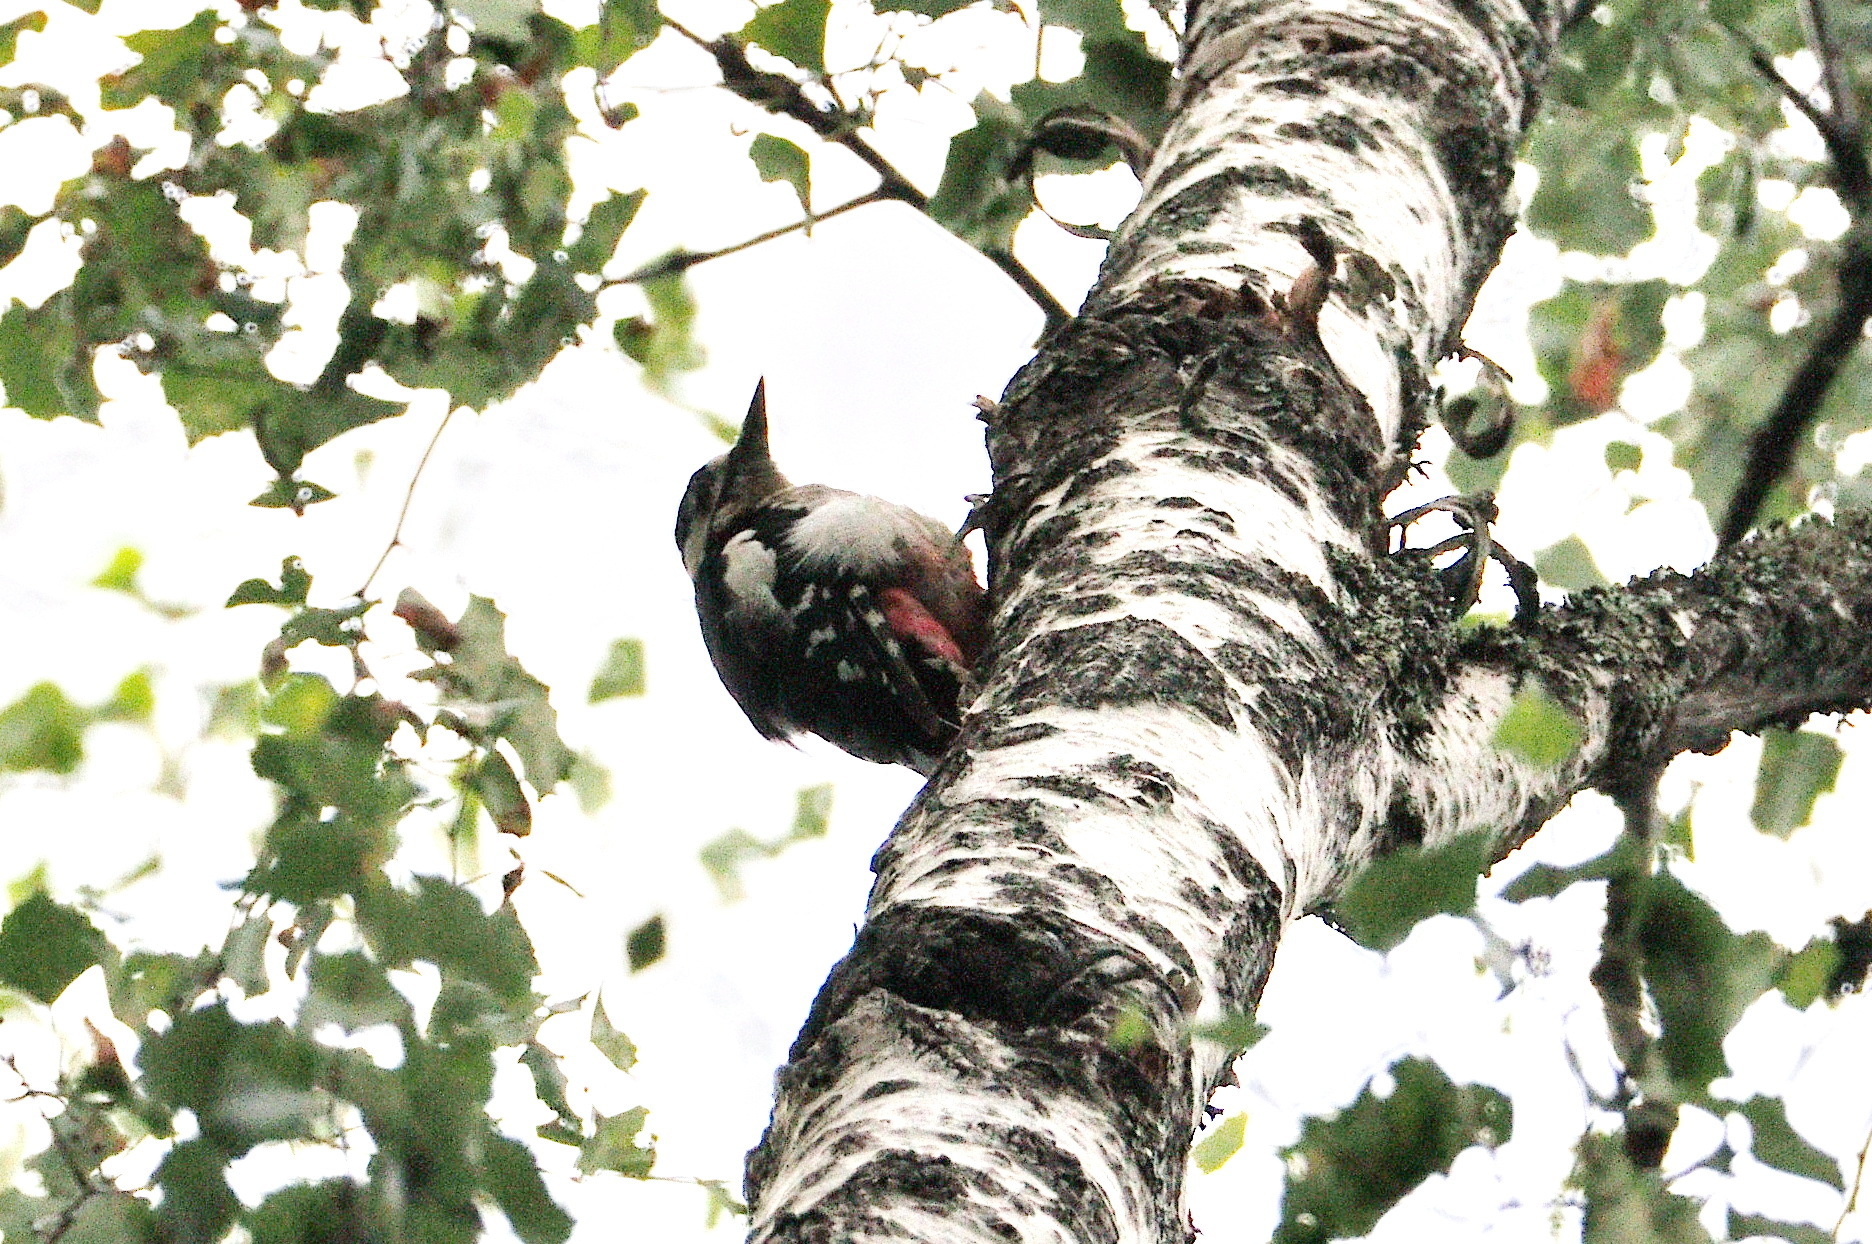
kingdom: Animalia
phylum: Chordata
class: Aves
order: Piciformes
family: Picidae
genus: Dendrocopos
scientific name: Dendrocopos major
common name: Great spotted woodpecker
